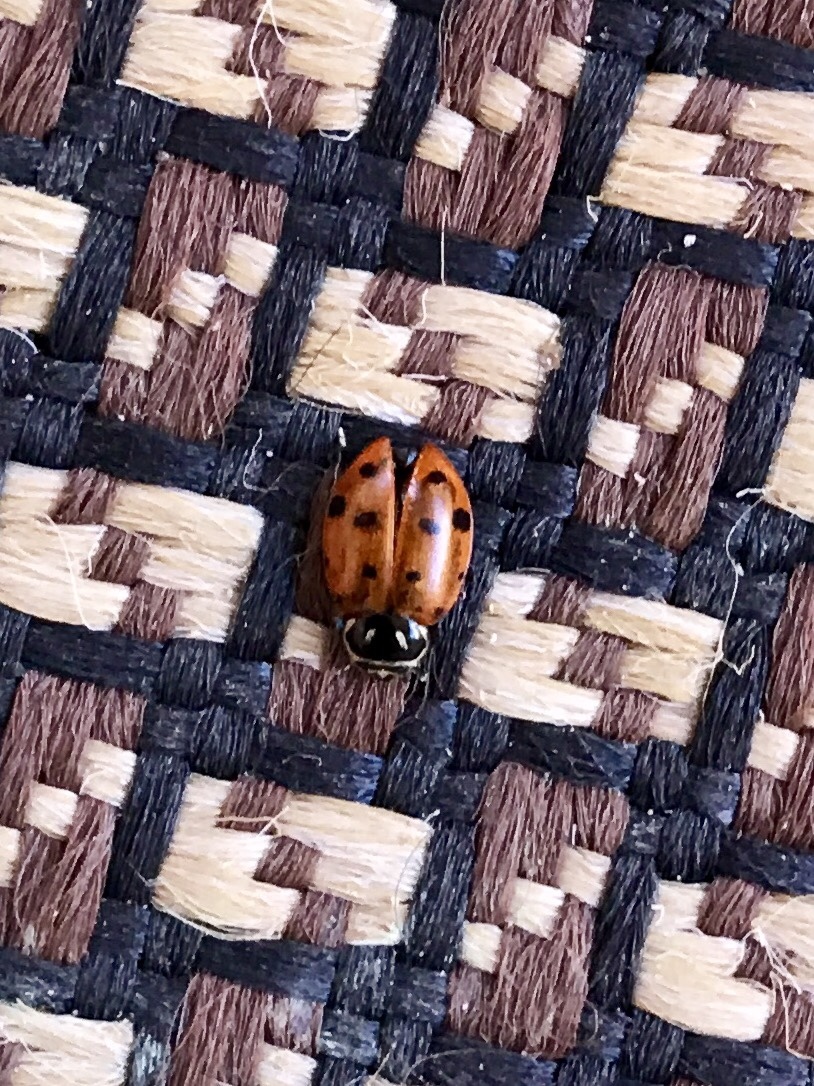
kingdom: Animalia
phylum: Arthropoda
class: Insecta
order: Coleoptera
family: Coccinellidae
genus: Hippodamia
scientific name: Hippodamia convergens
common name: Convergent lady beetle
